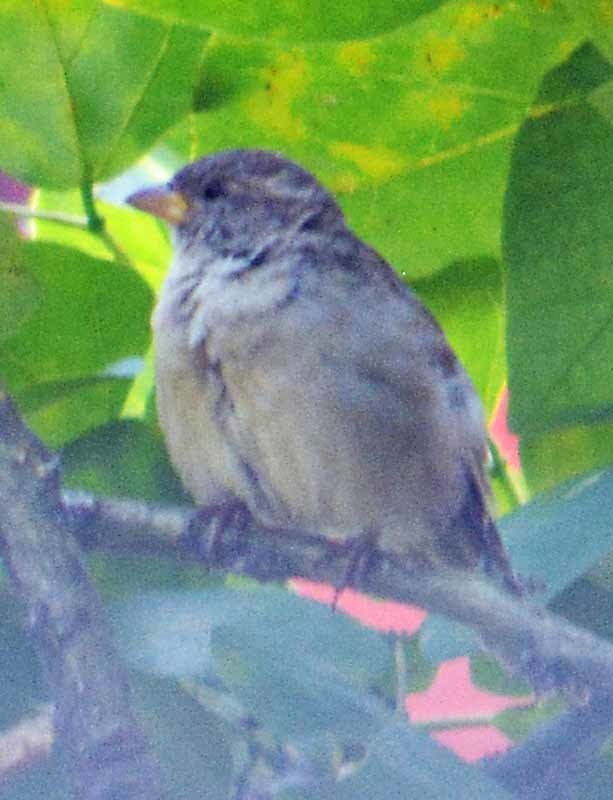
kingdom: Animalia
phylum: Chordata
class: Aves
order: Passeriformes
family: Passeridae
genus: Passer
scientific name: Passer domesticus
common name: House sparrow
